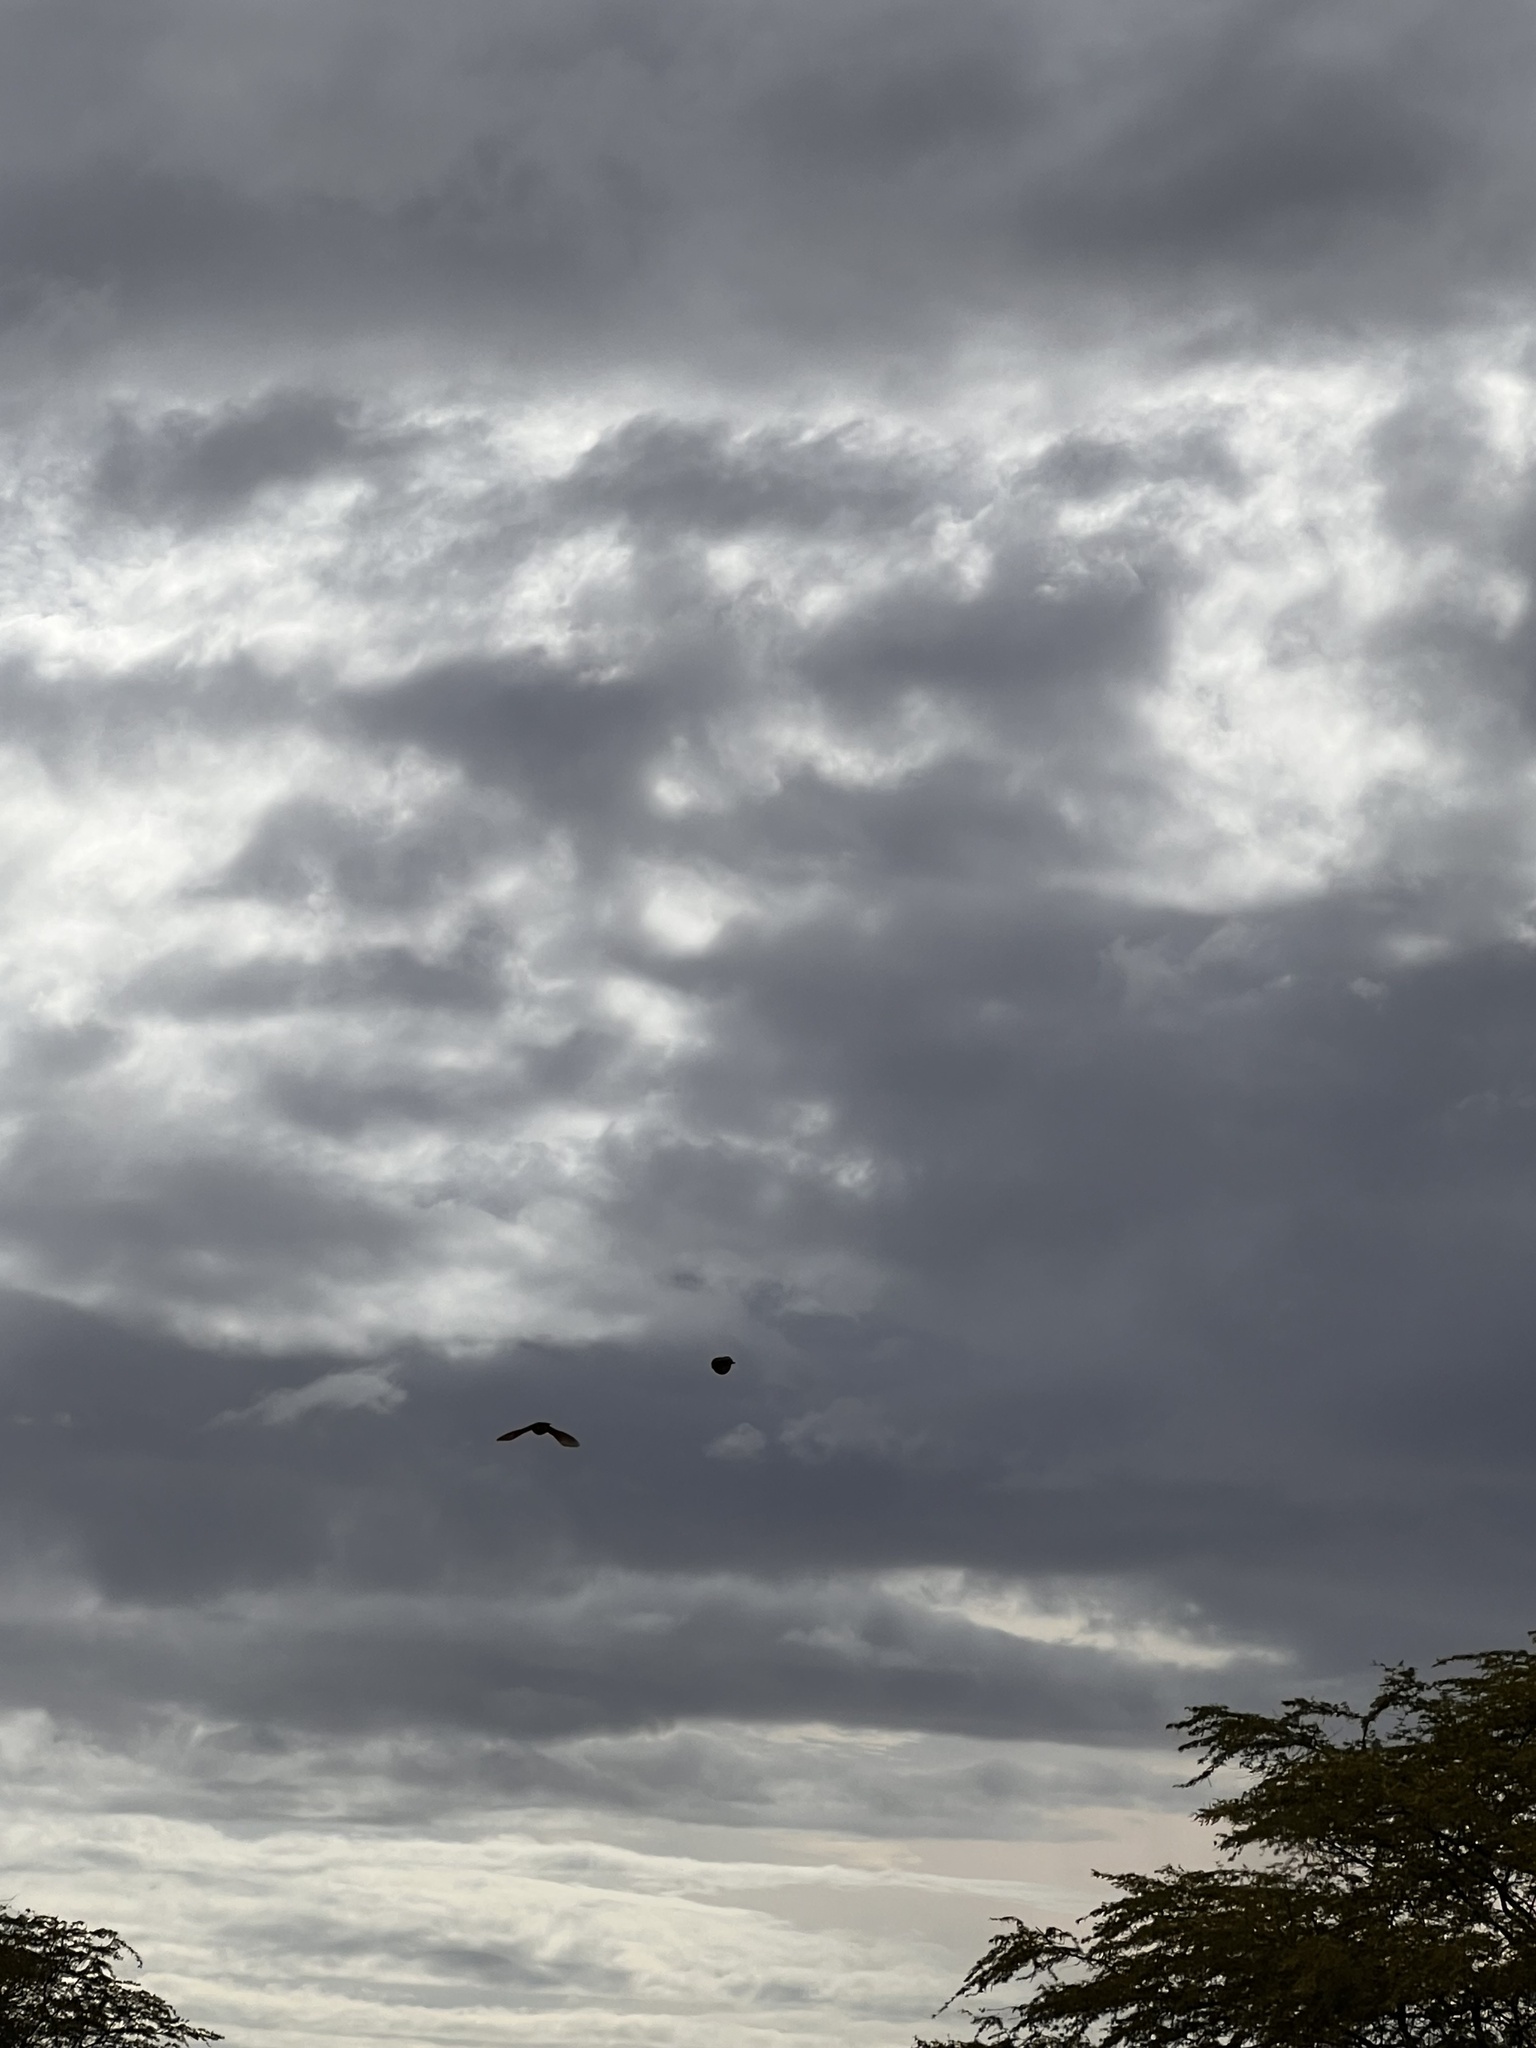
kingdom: Animalia
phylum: Chordata
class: Aves
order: Passeriformes
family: Cardinalidae
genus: Cardinalis
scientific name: Cardinalis cardinalis
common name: Northern cardinal
